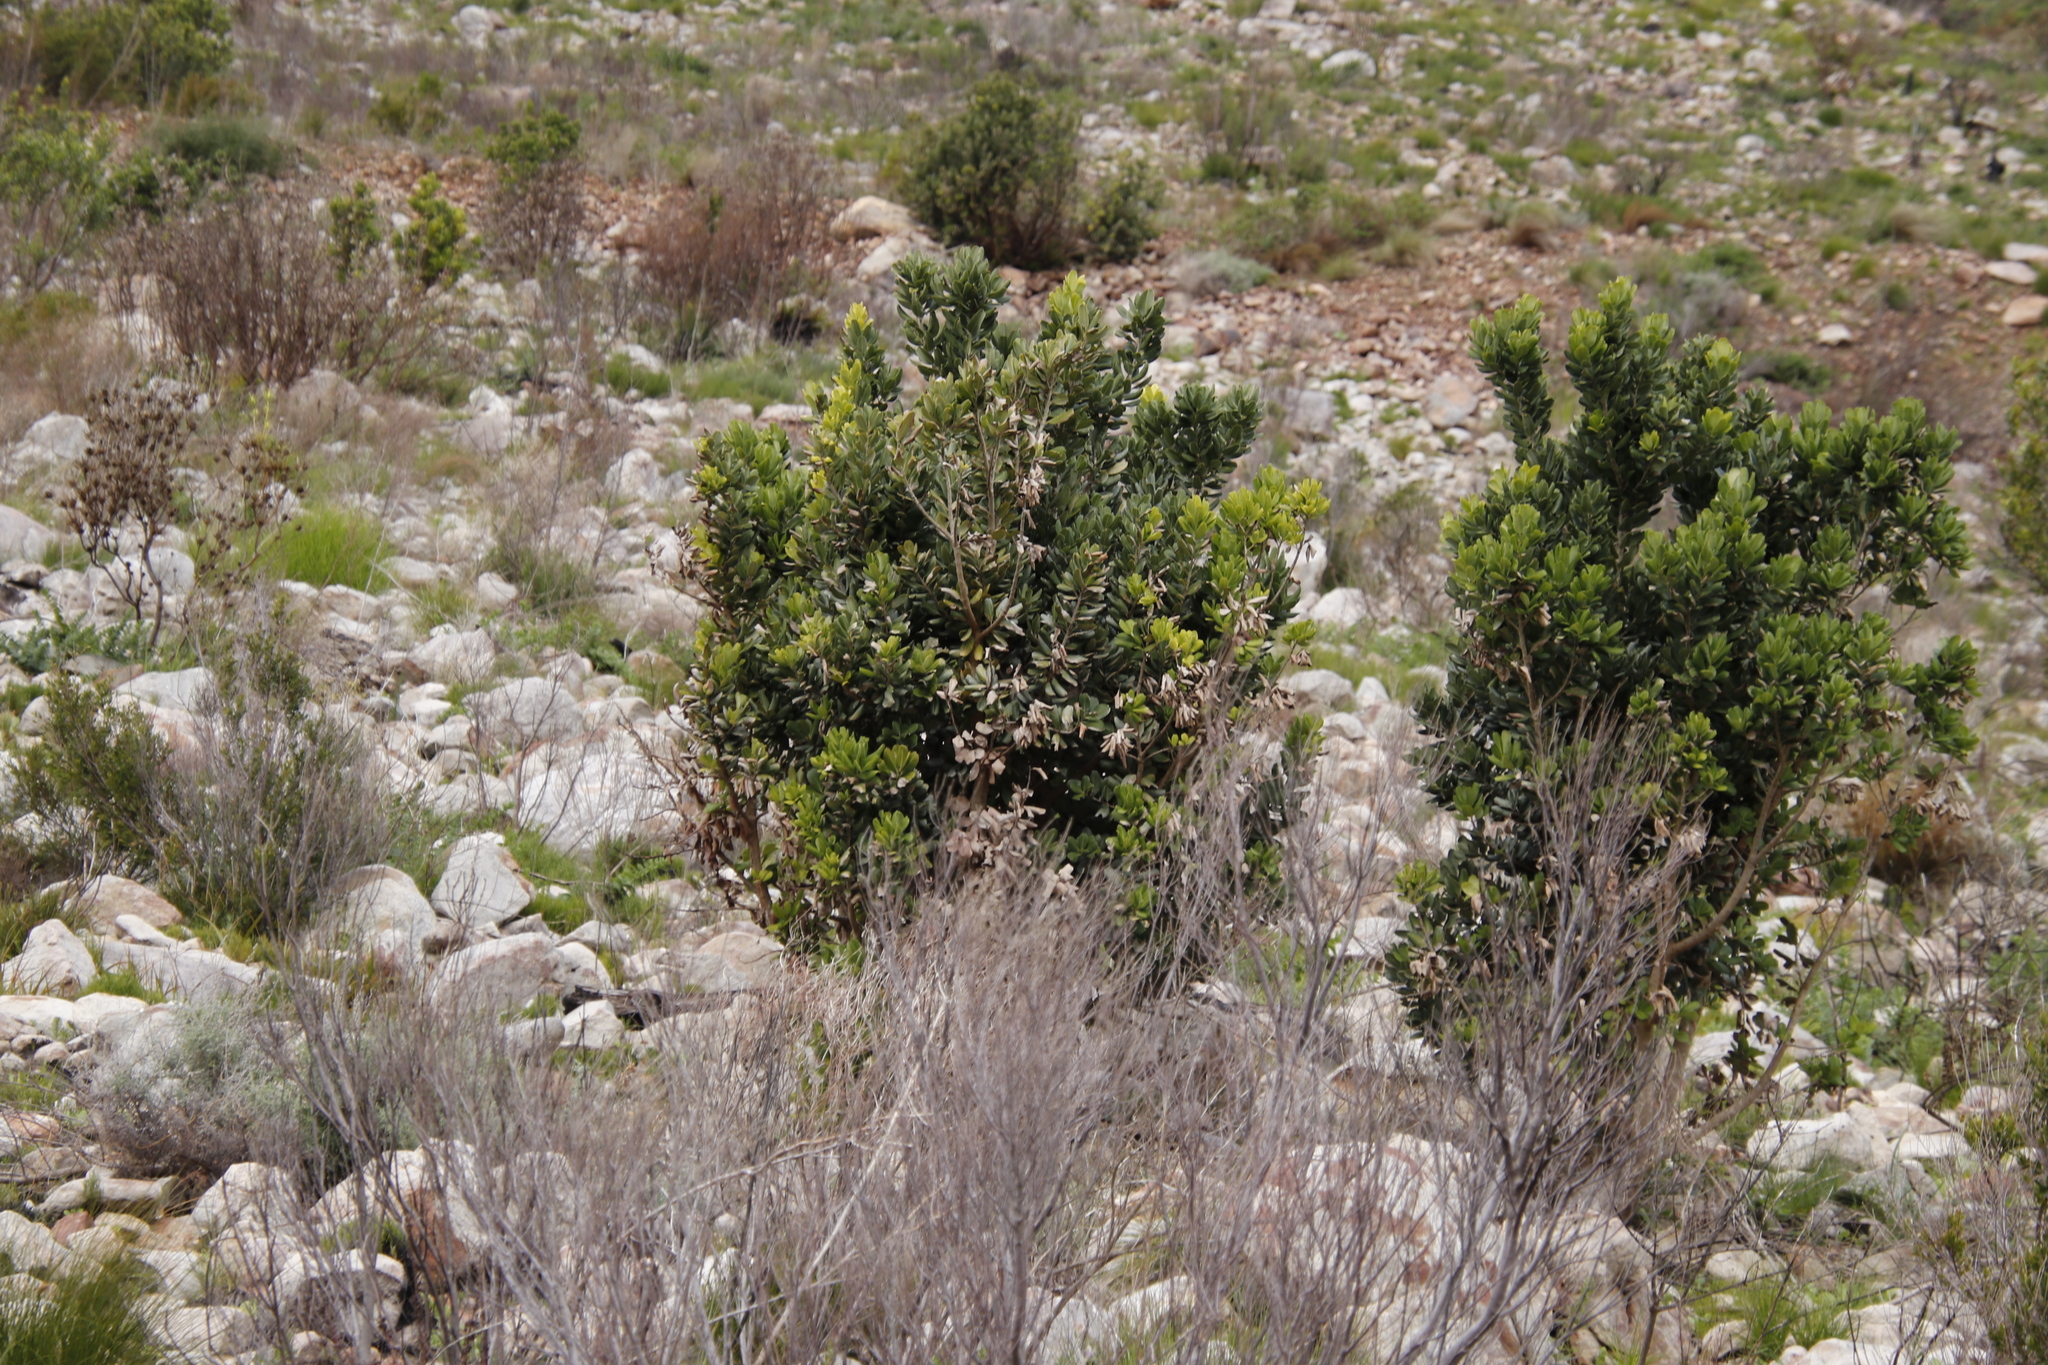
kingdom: Plantae
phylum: Tracheophyta
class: Magnoliopsida
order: Sapindales
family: Anacardiaceae
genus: Heeria
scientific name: Heeria argentea
